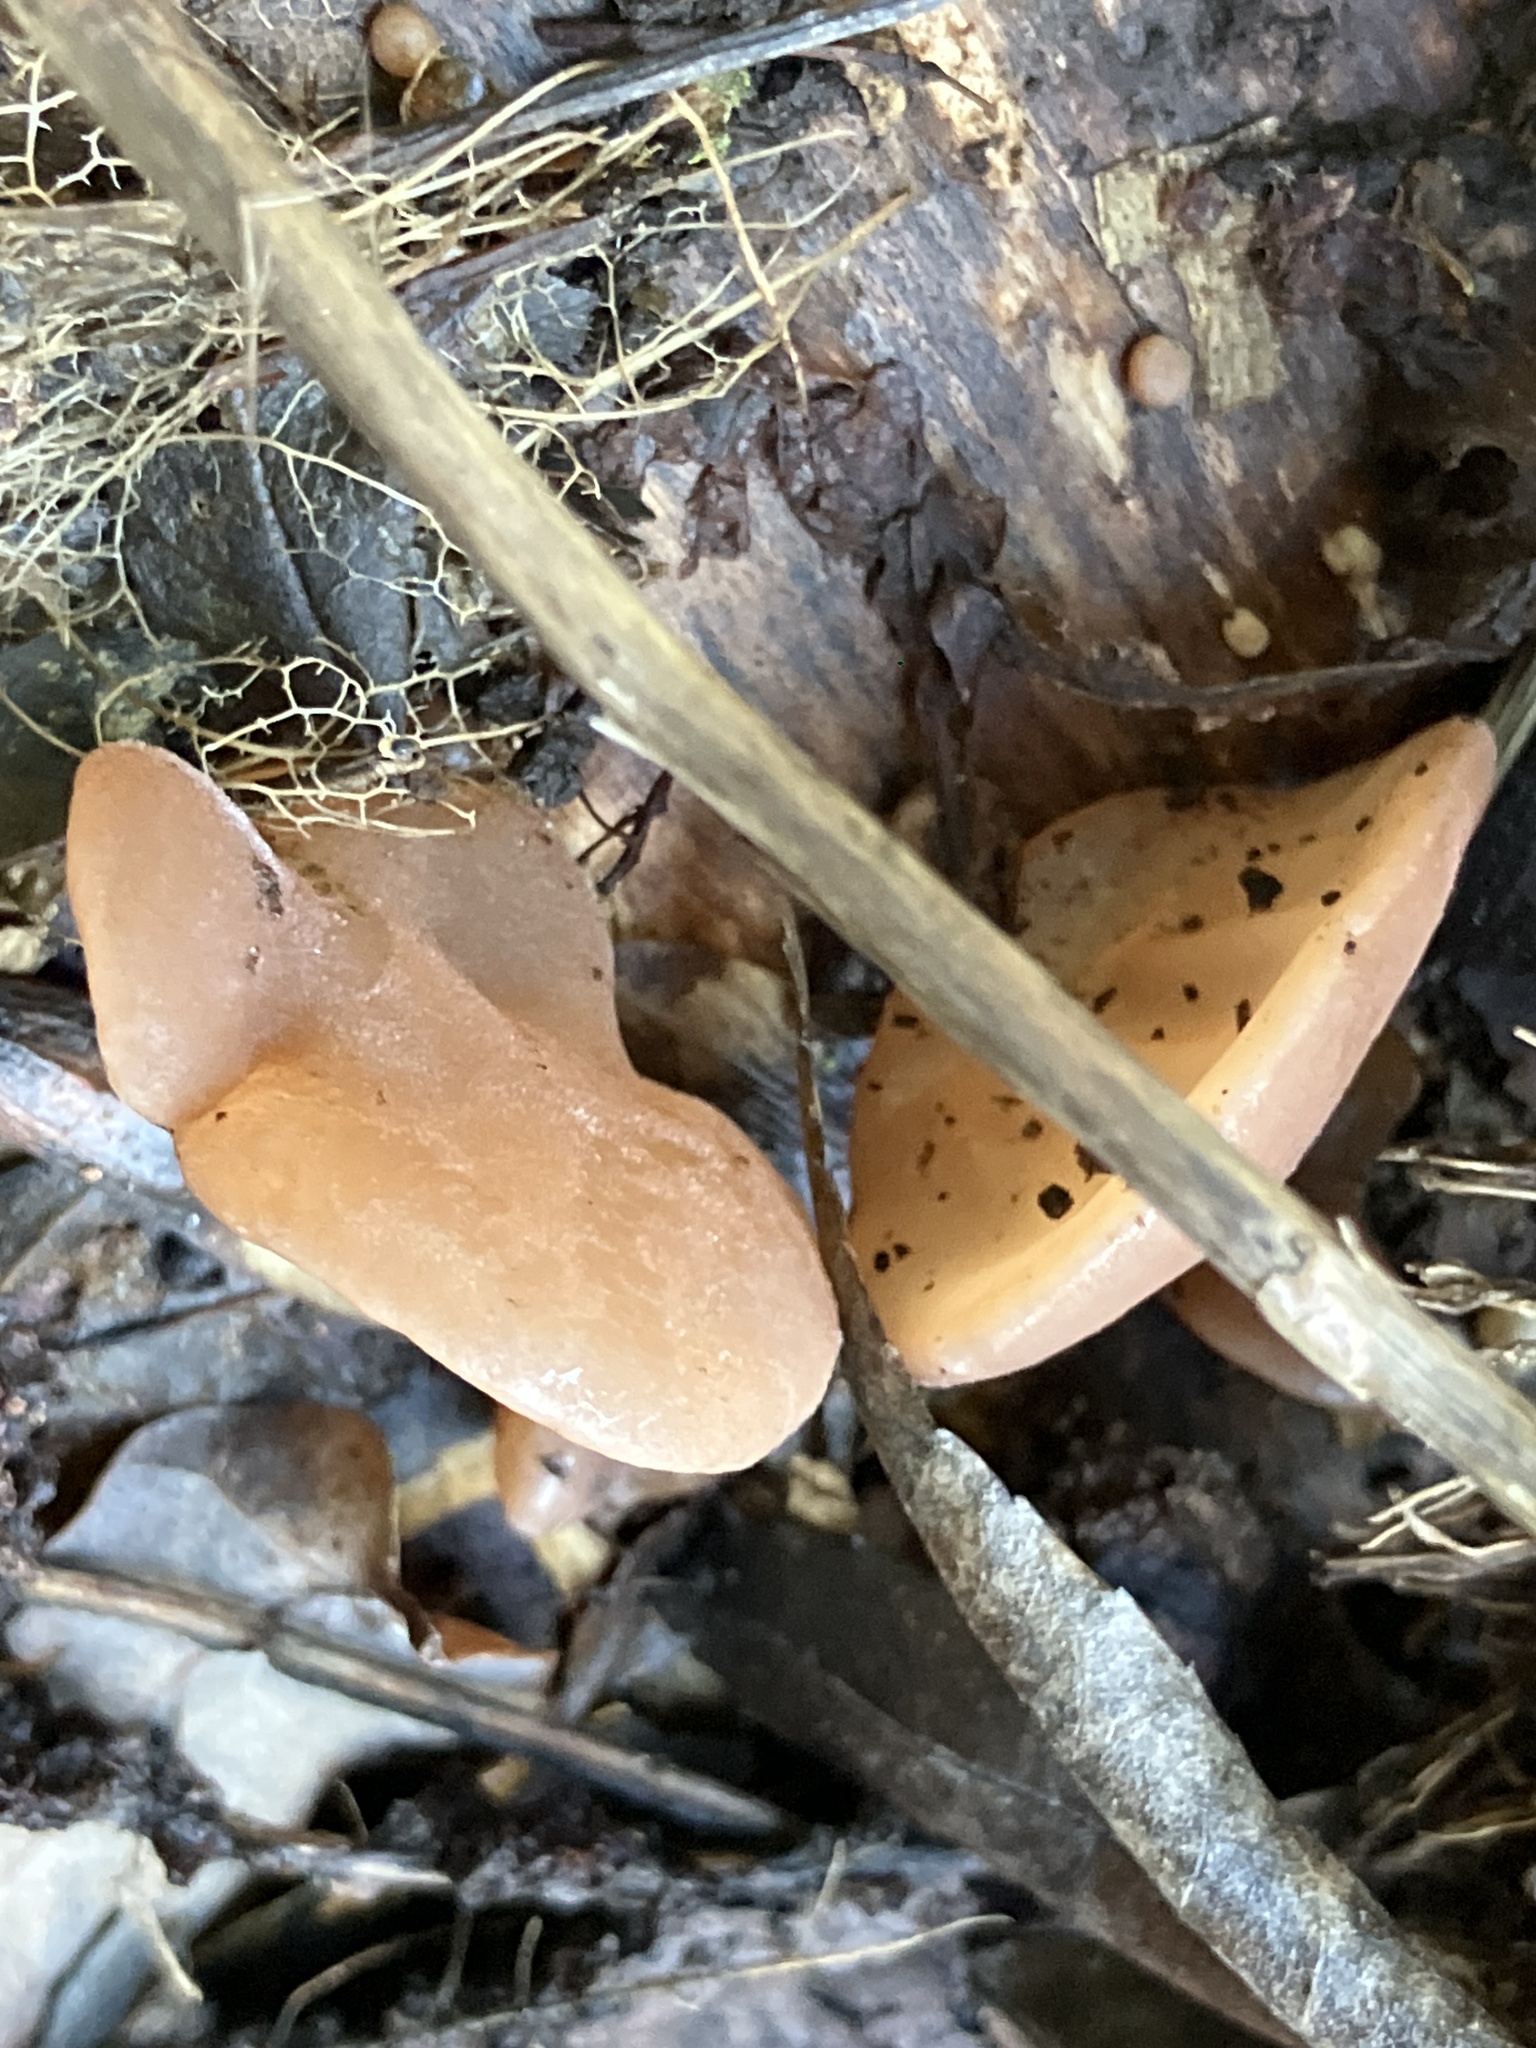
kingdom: Fungi
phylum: Basidiomycota
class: Agaricomycetes
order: Auriculariales
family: Auriculariaceae
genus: Auricularia
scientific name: Auricularia auricula-judae
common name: Jelly ear
